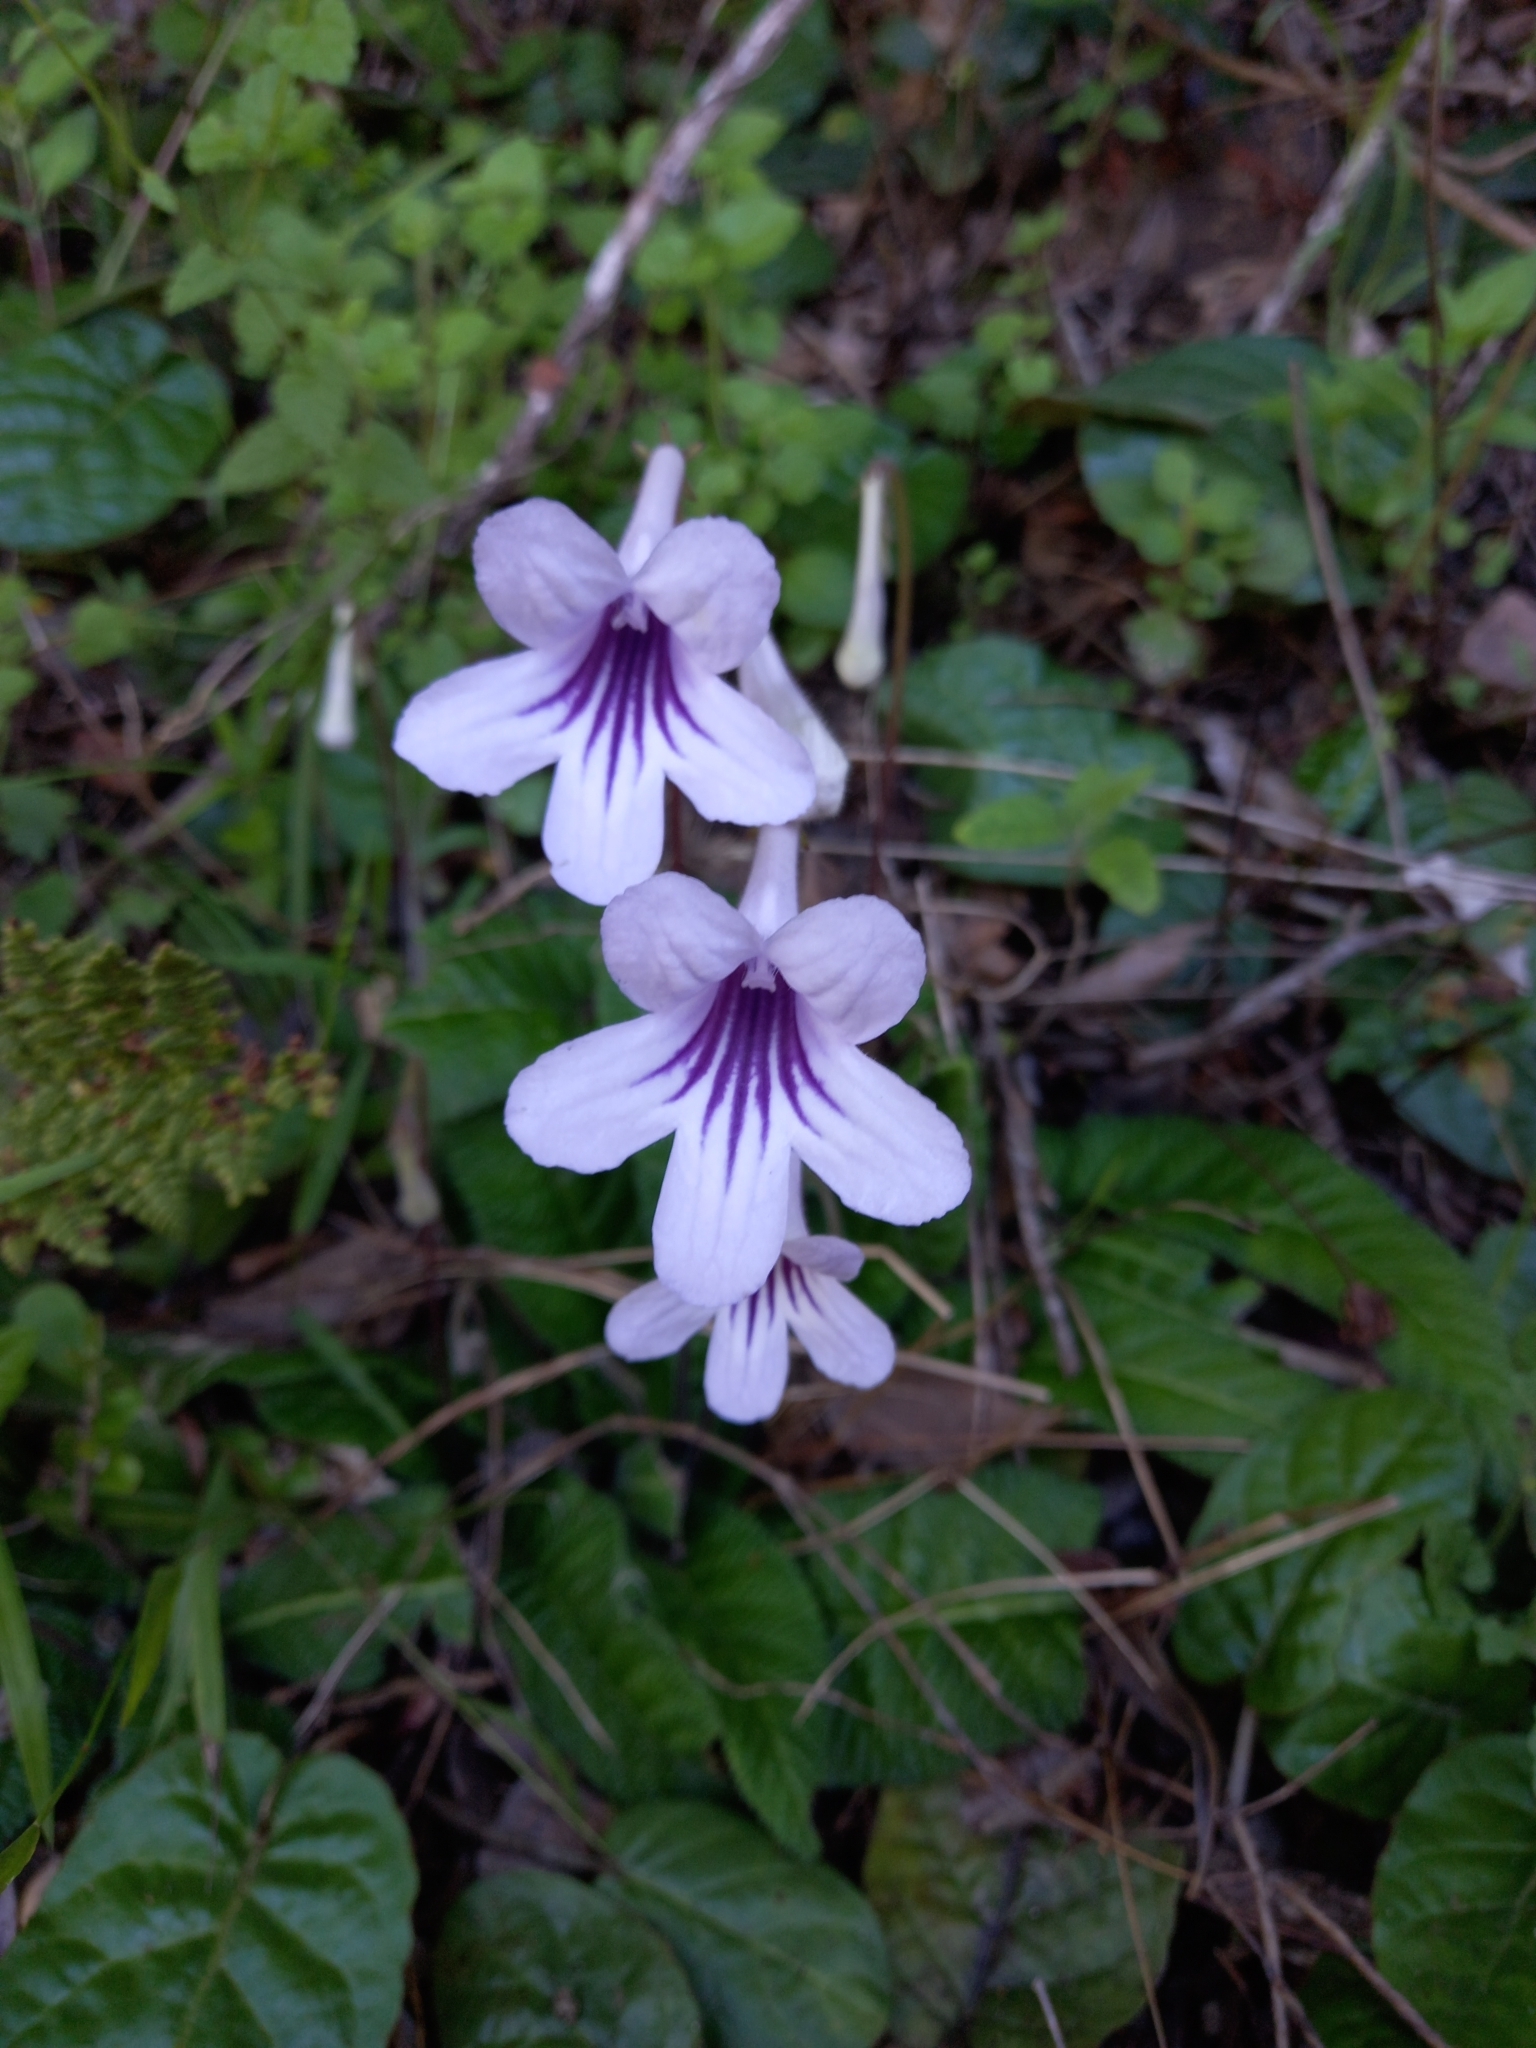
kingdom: Plantae
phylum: Tracheophyta
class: Magnoliopsida
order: Lamiales
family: Gesneriaceae
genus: Streptocarpus
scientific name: Streptocarpus rexii
